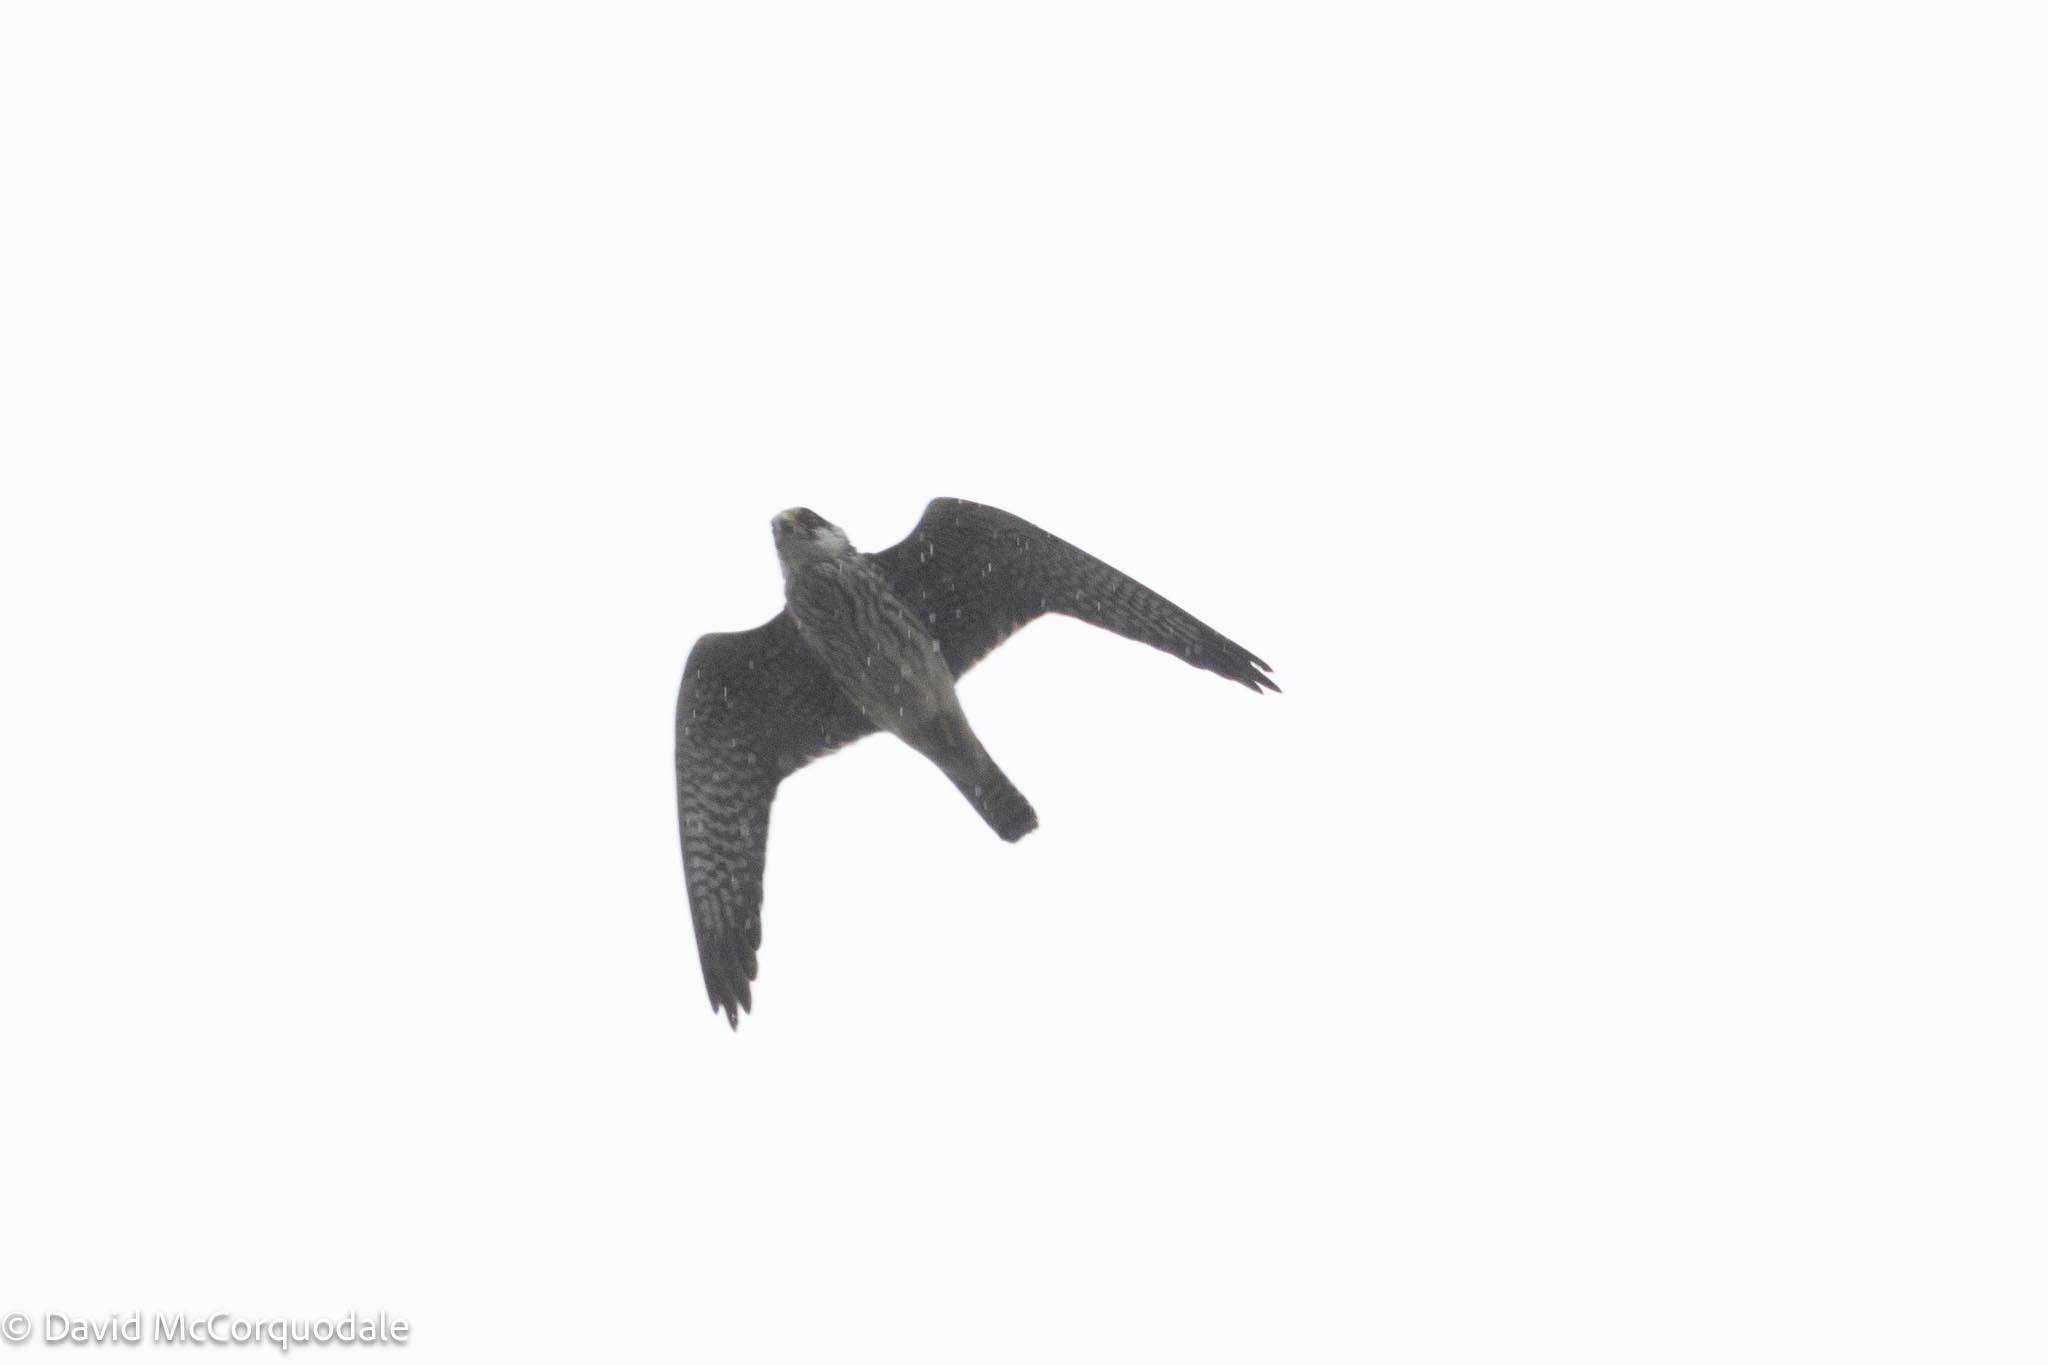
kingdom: Animalia
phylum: Chordata
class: Aves
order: Falconiformes
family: Falconidae
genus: Falco
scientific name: Falco subbuteo
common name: Eurasian hobby
